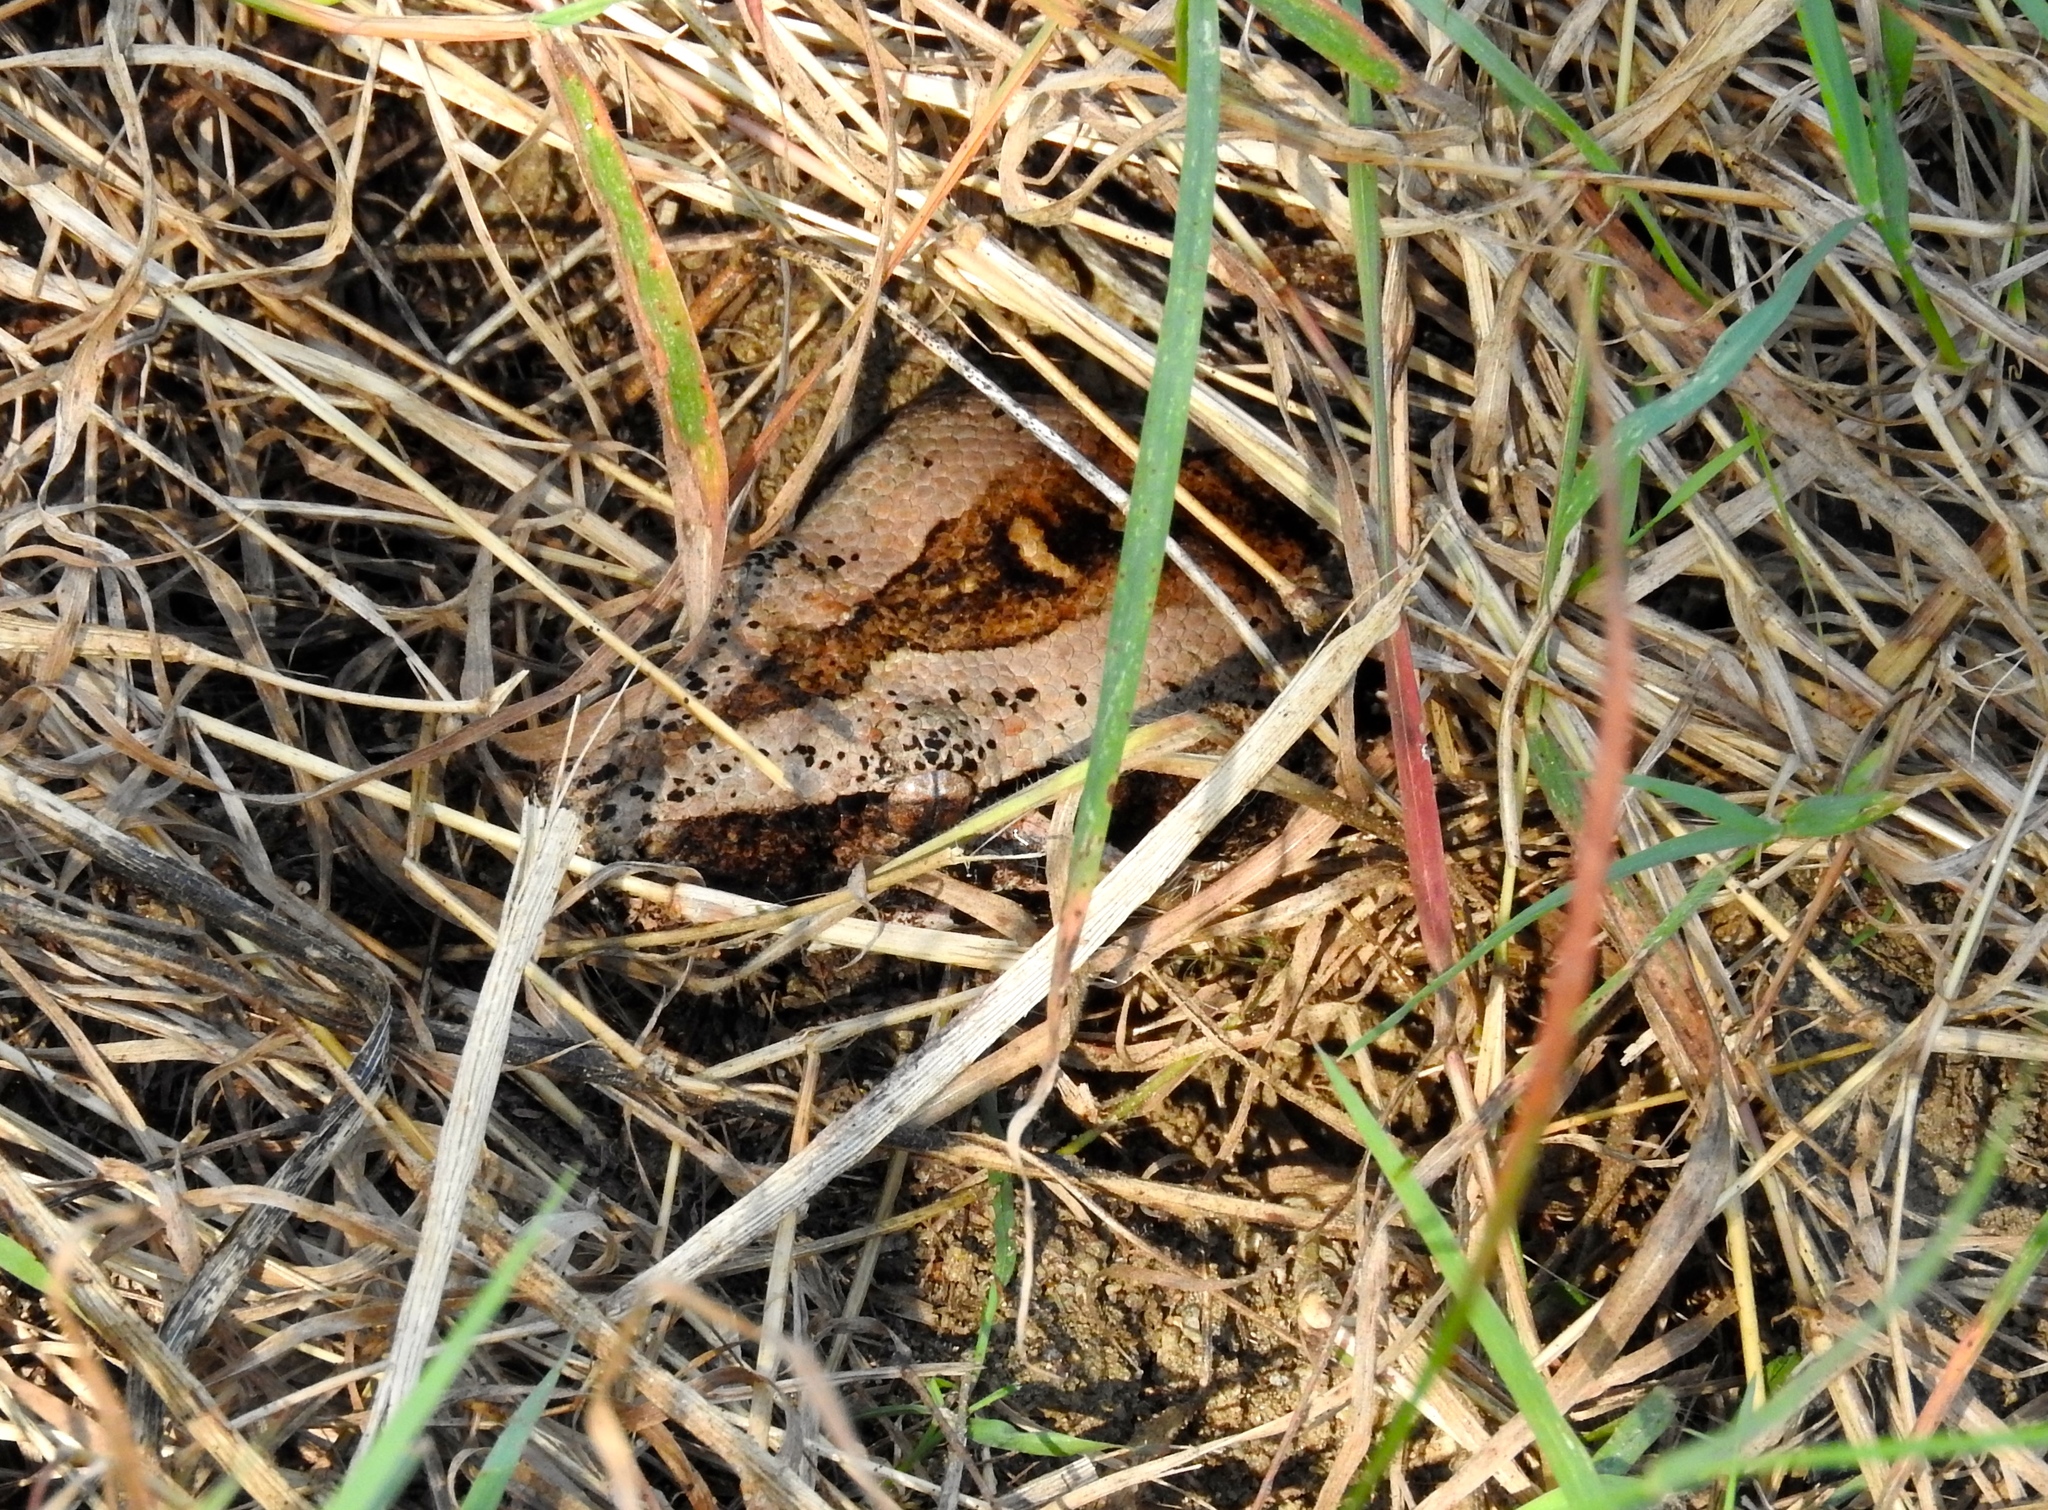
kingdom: Animalia
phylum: Chordata
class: Squamata
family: Boidae
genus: Boa
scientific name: Boa
